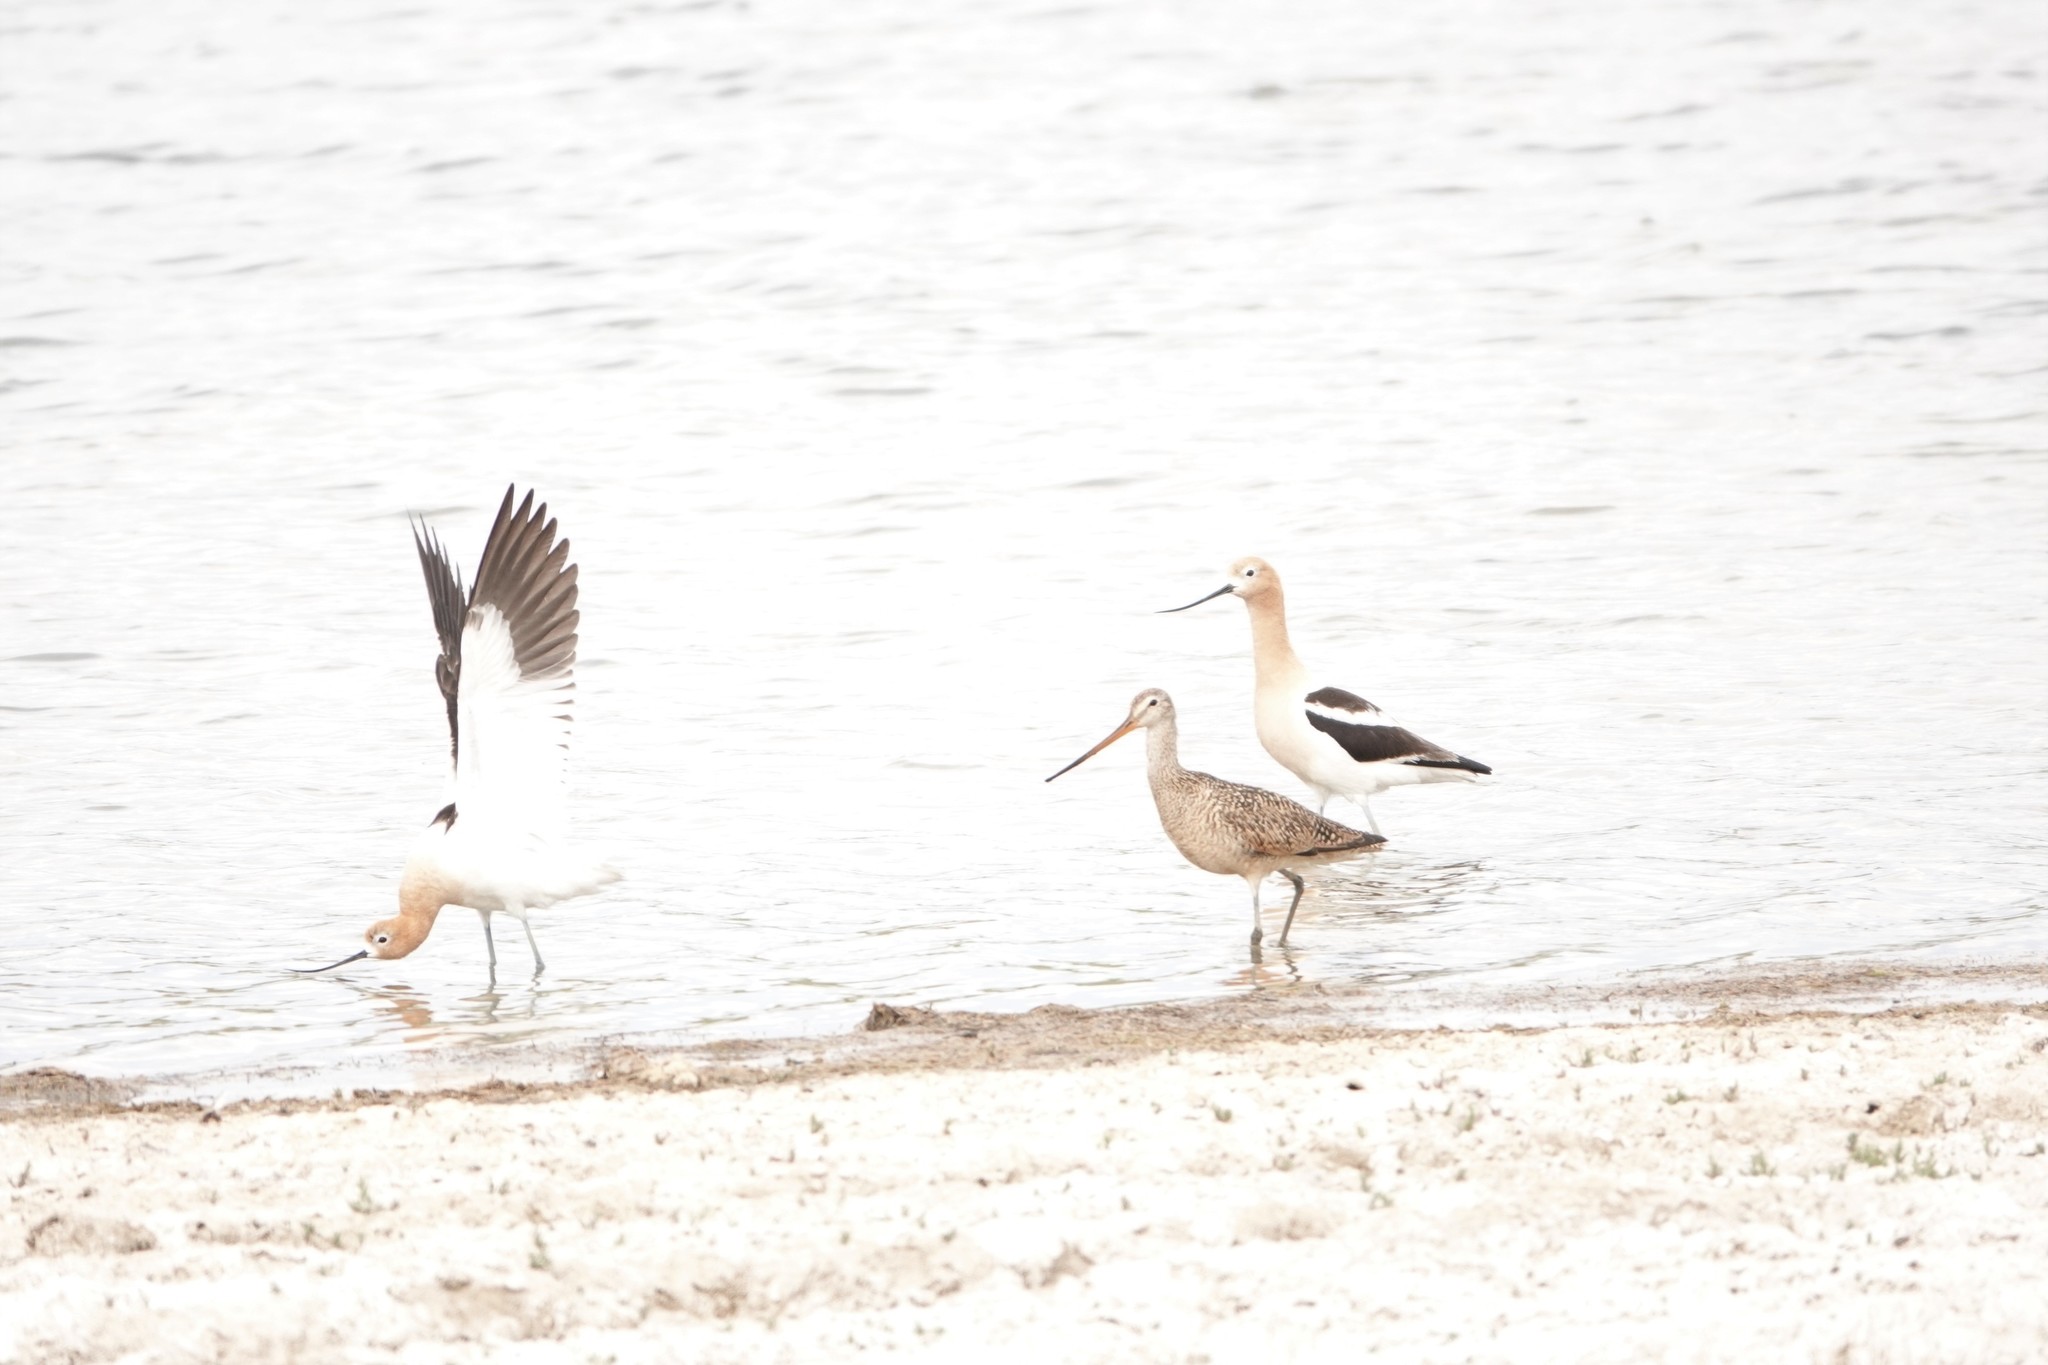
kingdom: Animalia
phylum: Chordata
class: Aves
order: Charadriiformes
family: Recurvirostridae
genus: Recurvirostra
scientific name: Recurvirostra americana
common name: American avocet
